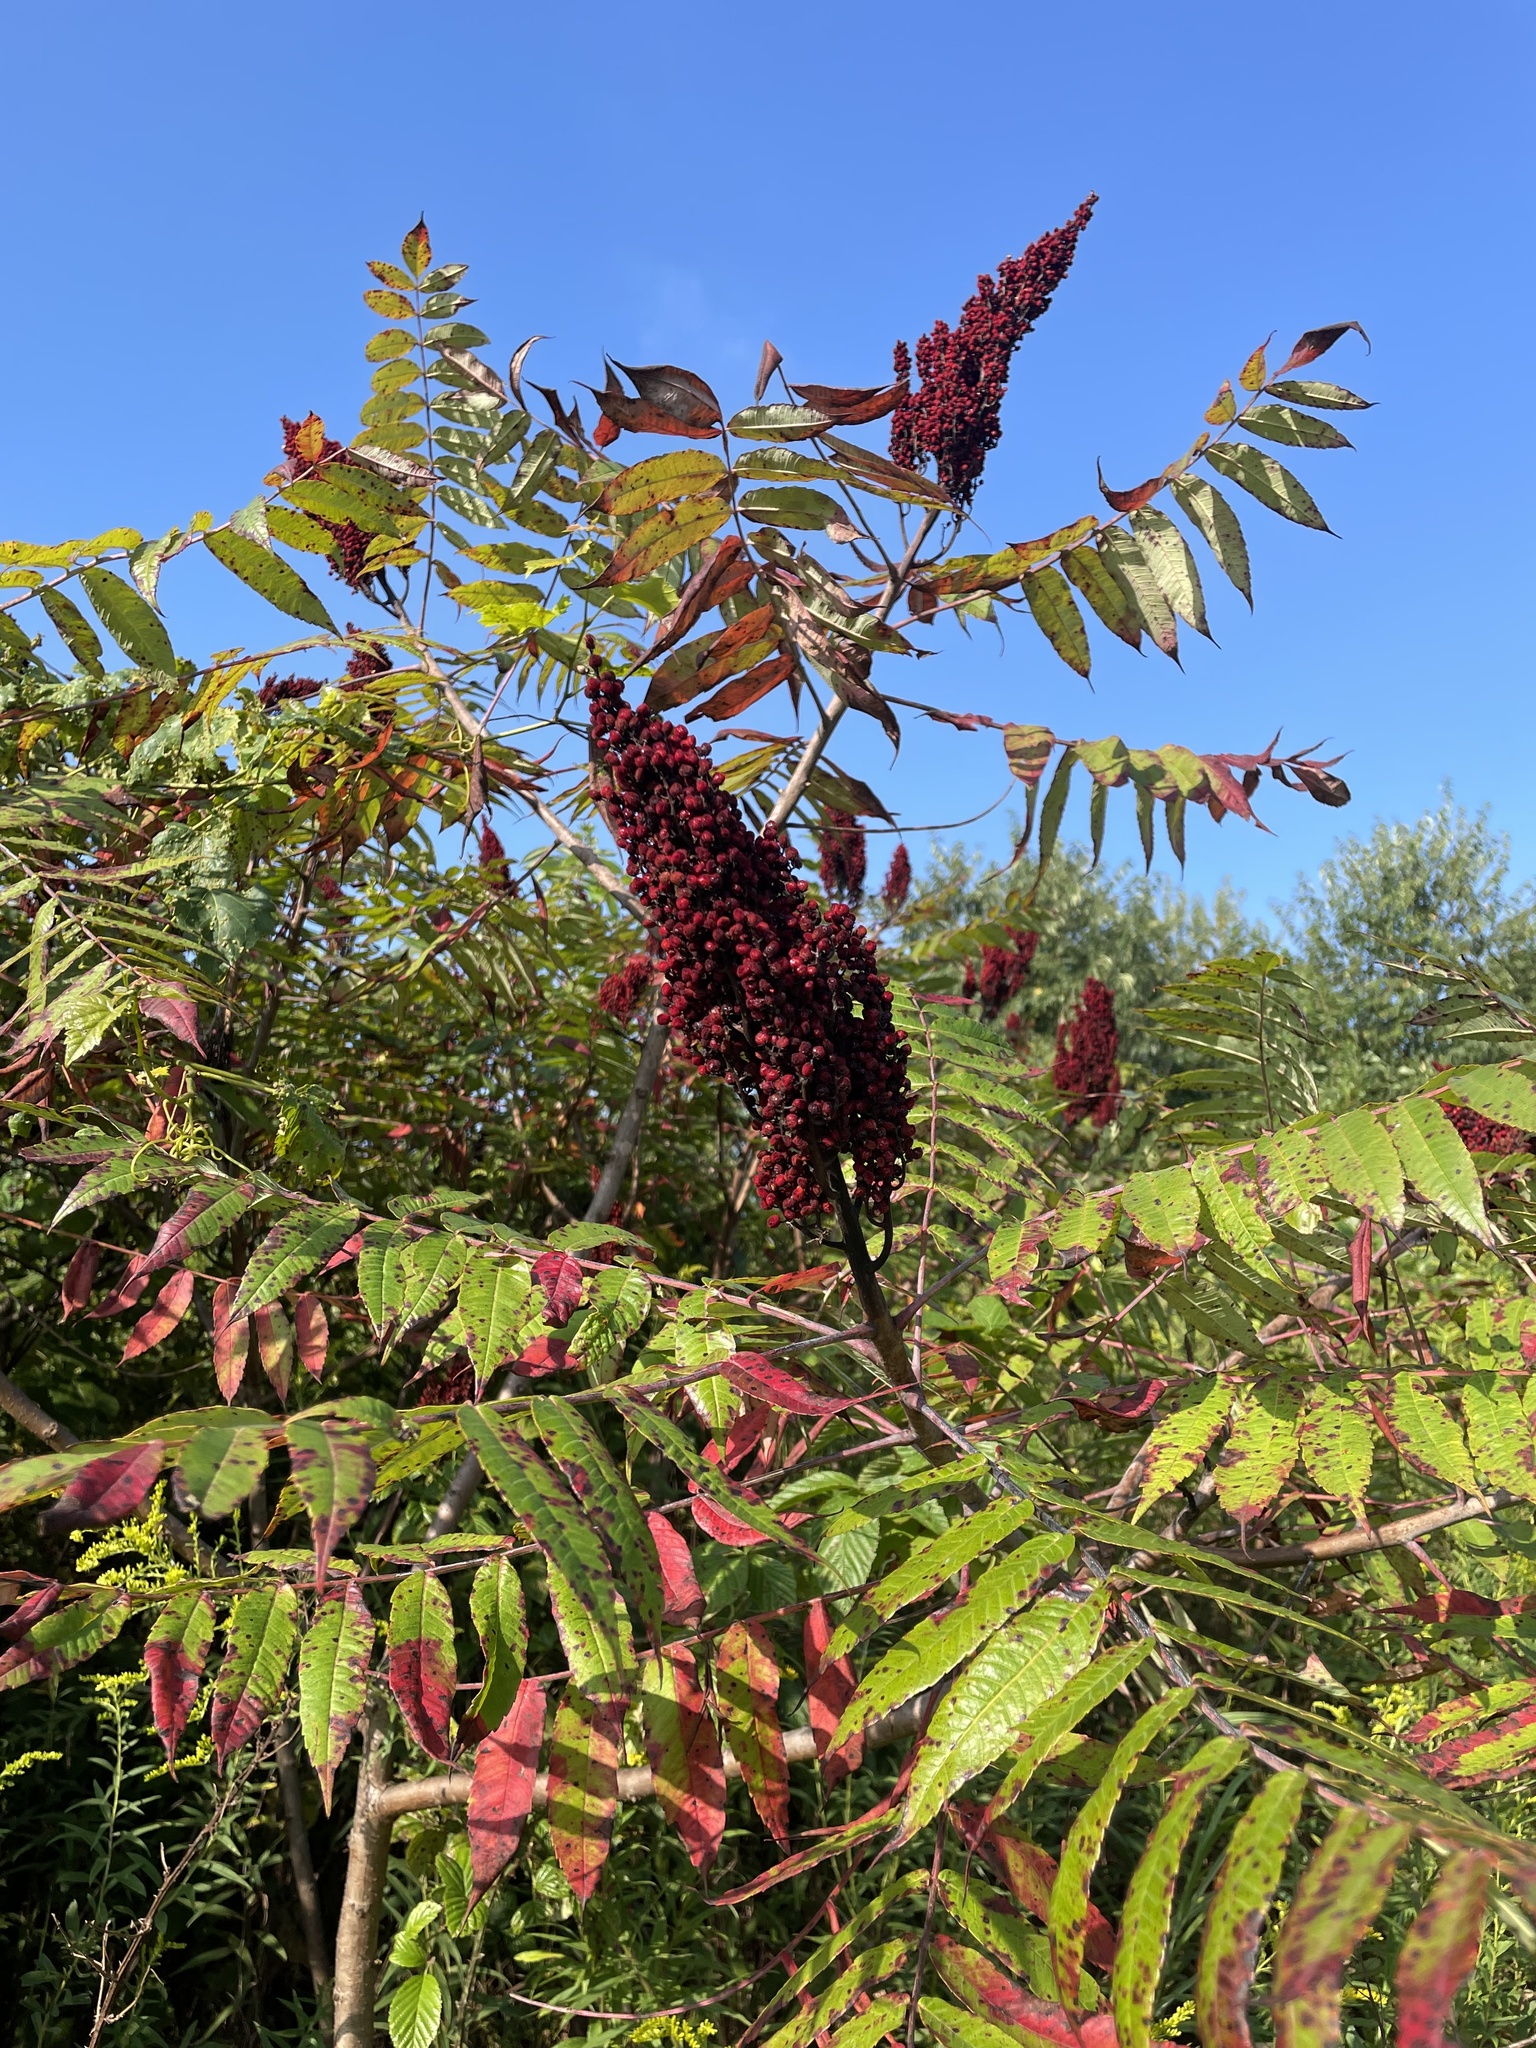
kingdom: Plantae
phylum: Tracheophyta
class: Magnoliopsida
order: Sapindales
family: Anacardiaceae
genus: Rhus
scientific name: Rhus typhina
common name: Staghorn sumac
